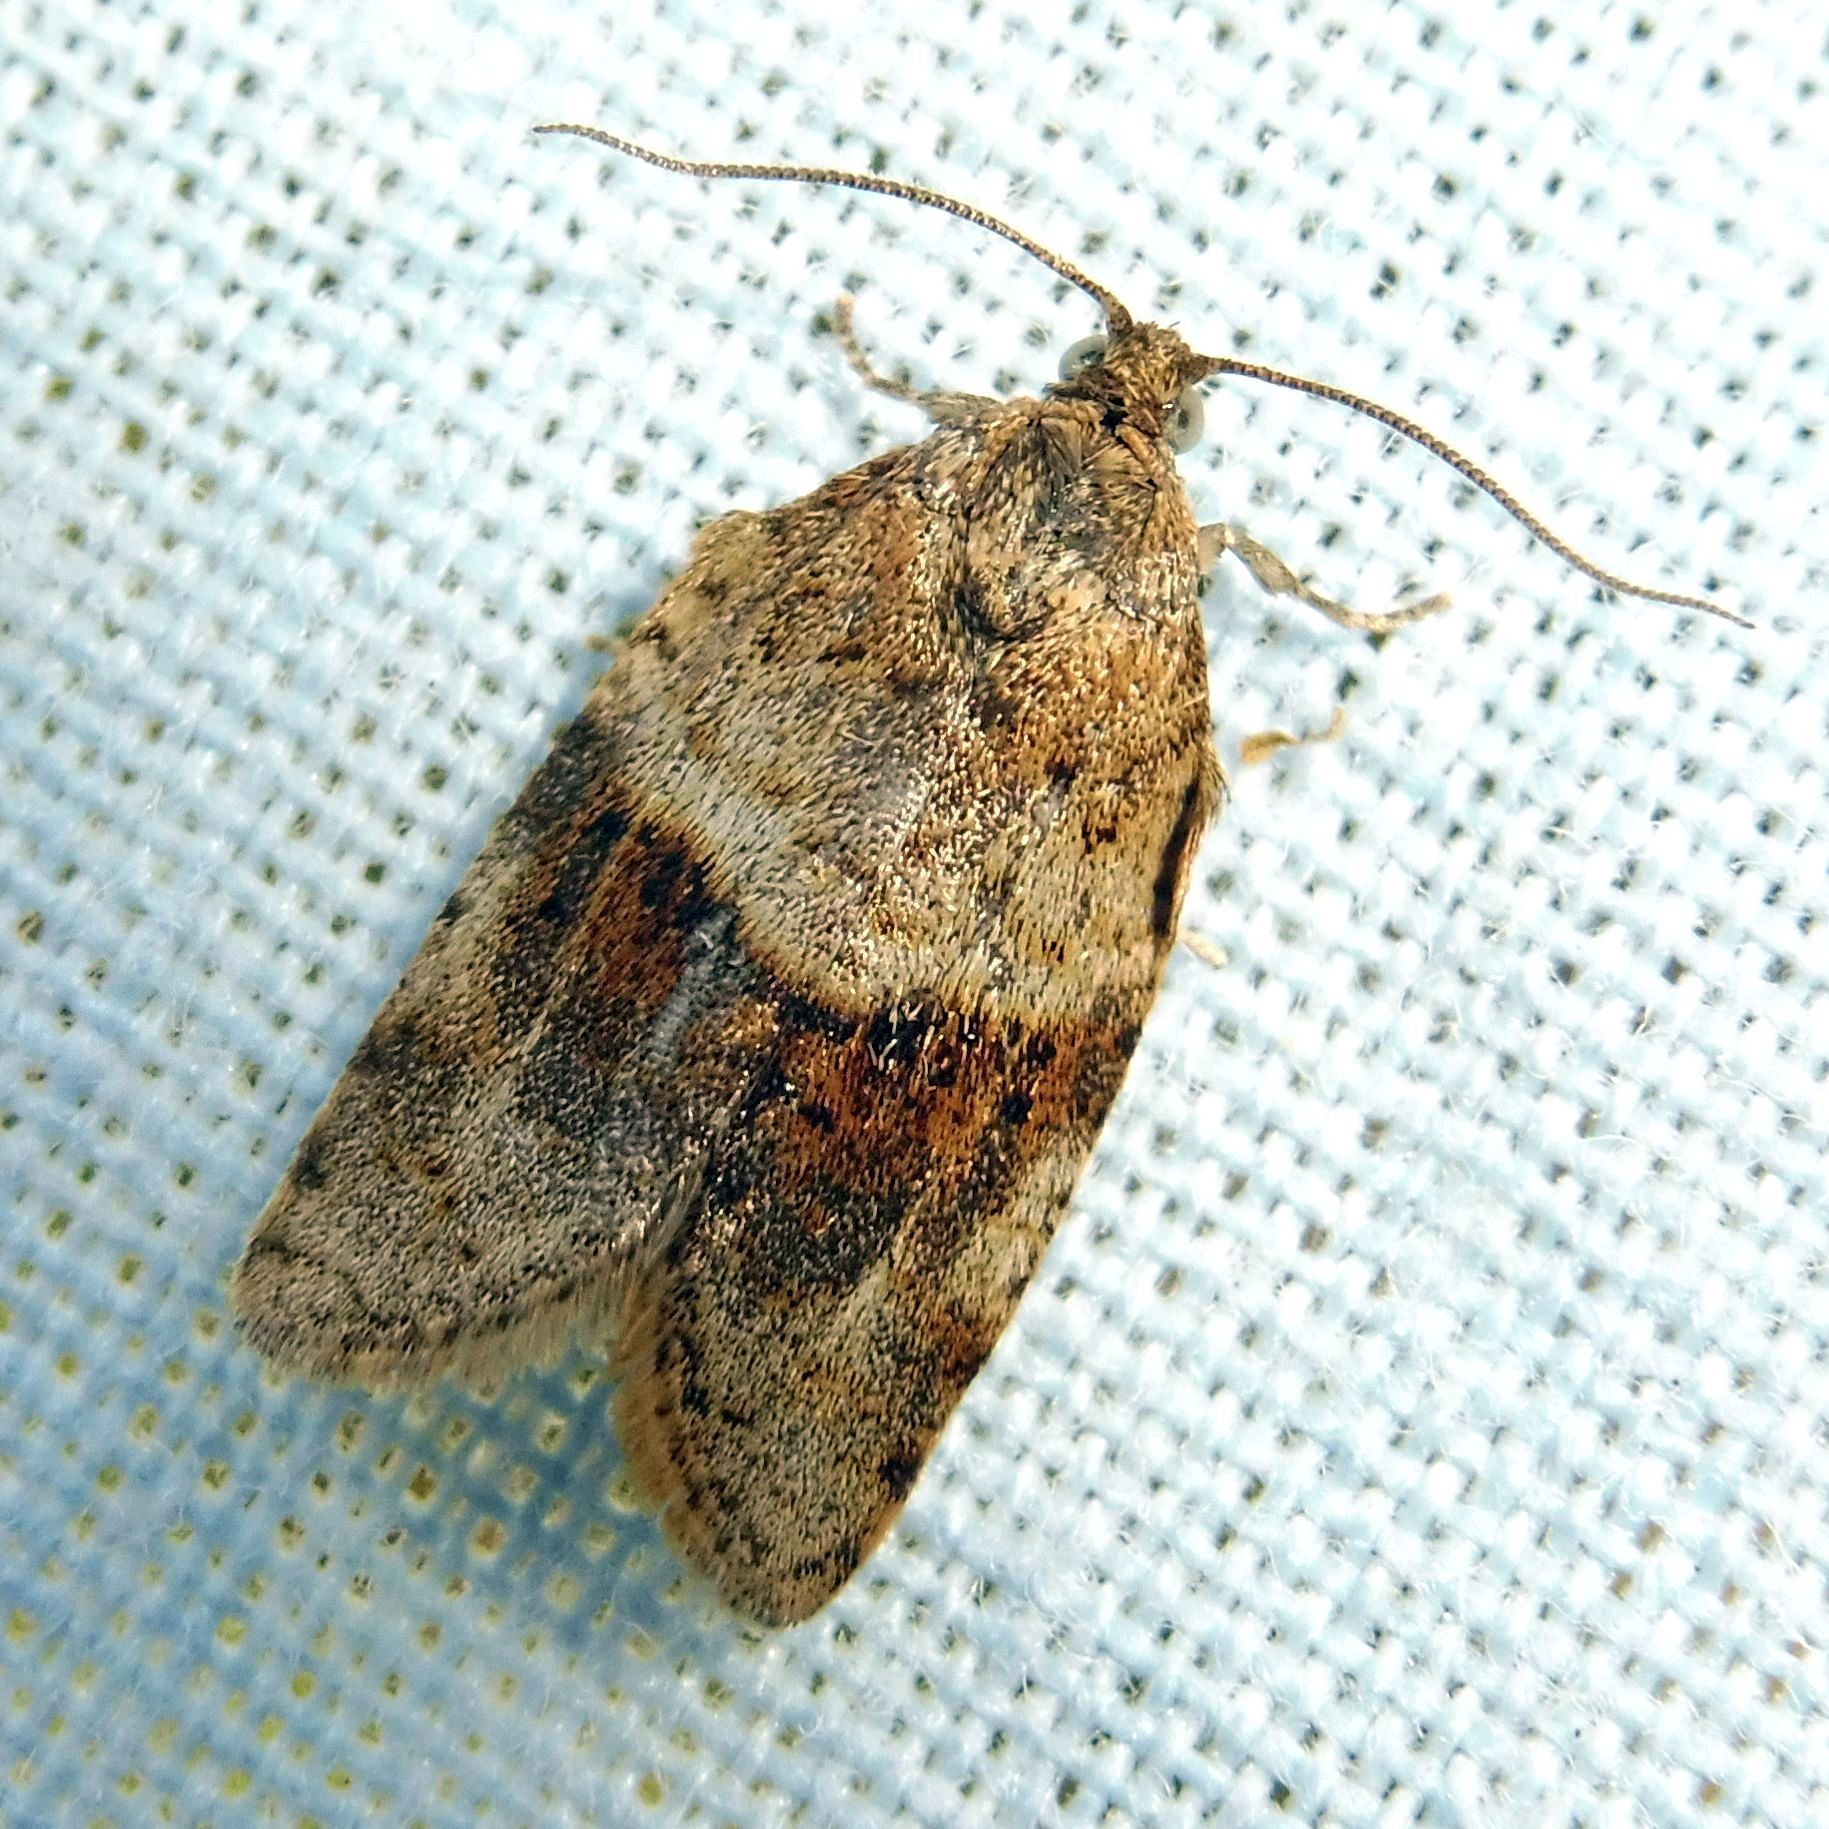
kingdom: Animalia
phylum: Arthropoda
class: Insecta
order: Lepidoptera
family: Tortricidae
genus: Syndemis
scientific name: Syndemis musculana
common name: Dark-barred twist
